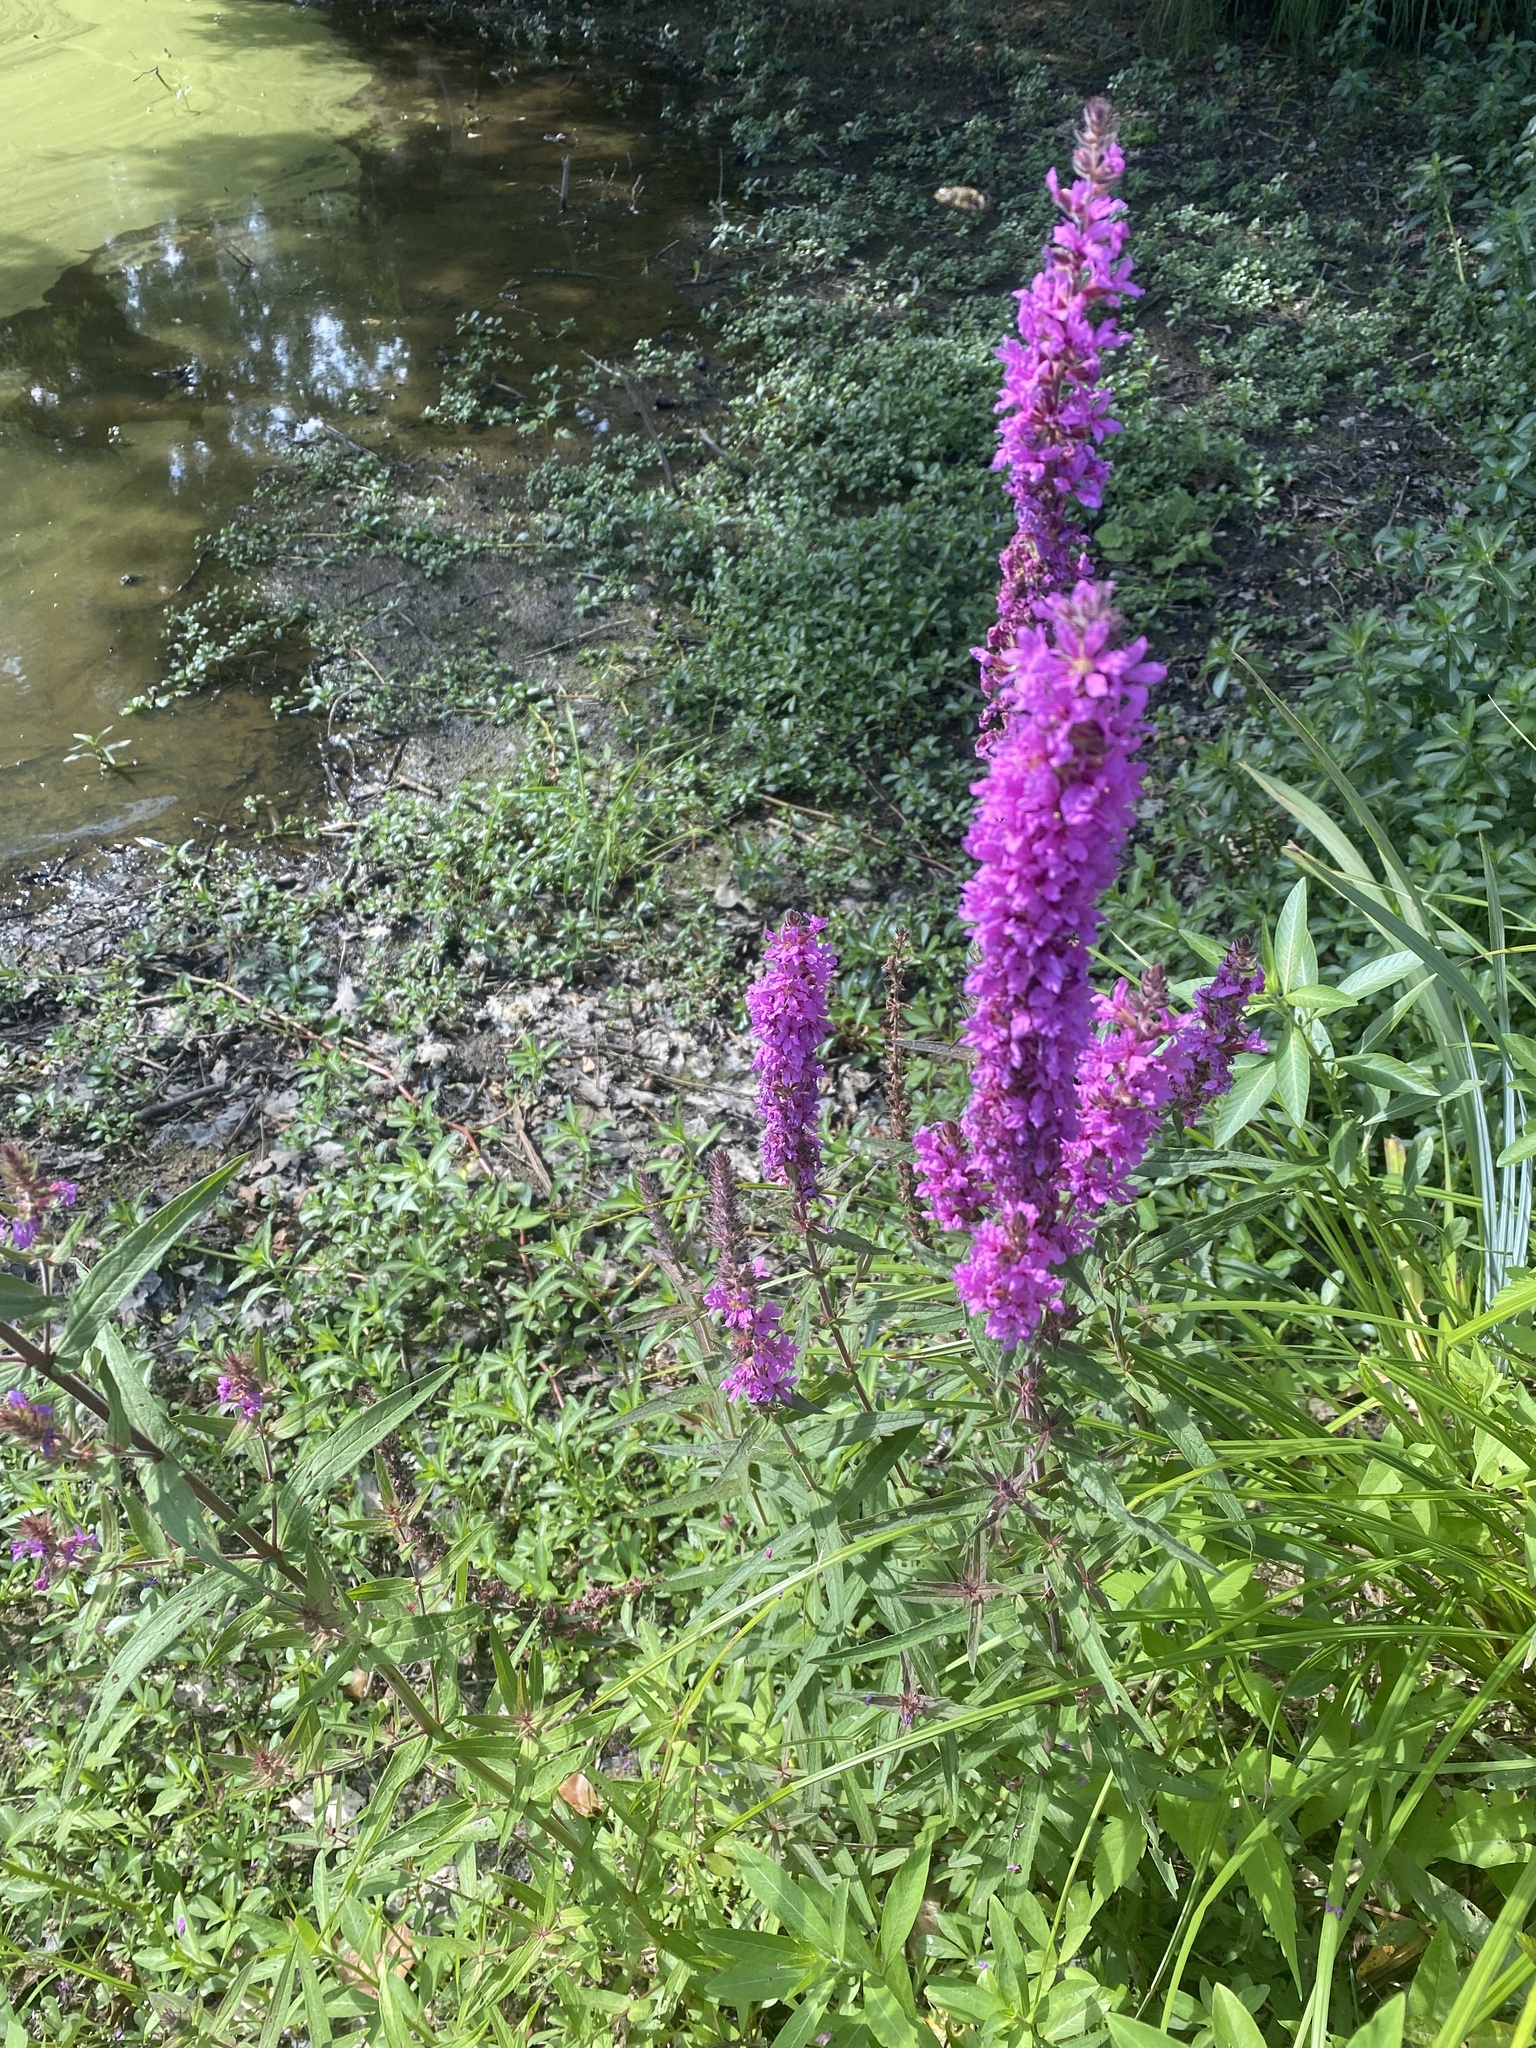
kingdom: Plantae
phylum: Tracheophyta
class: Magnoliopsida
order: Myrtales
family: Lythraceae
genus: Lythrum
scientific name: Lythrum salicaria
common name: Purple loosestrife
